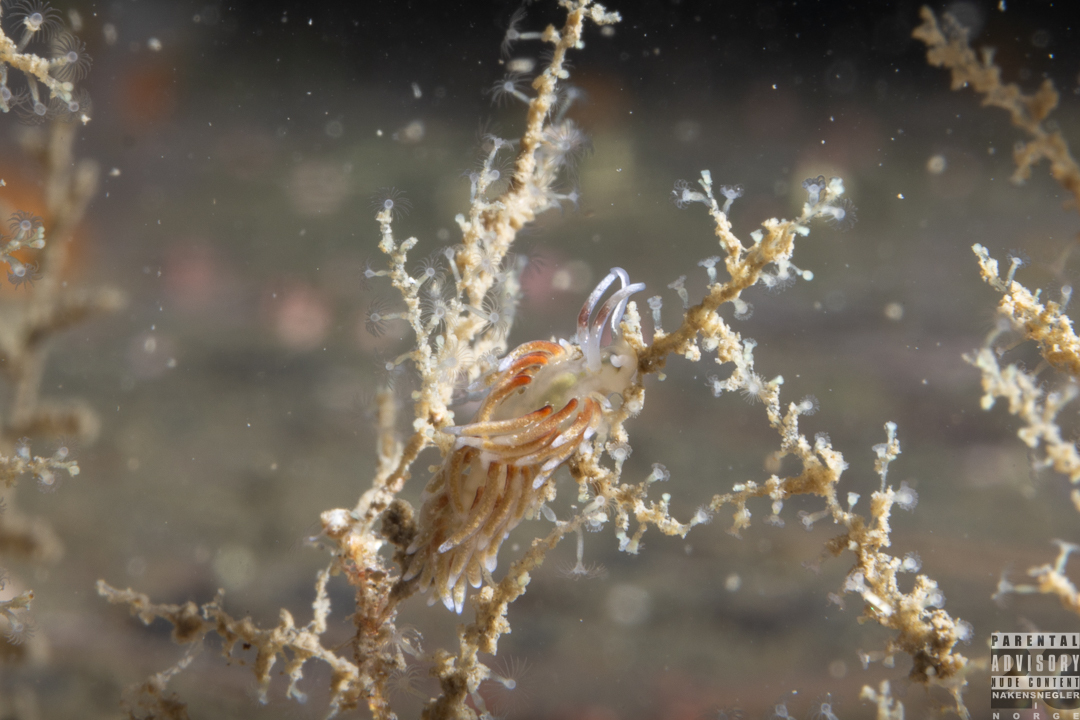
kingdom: Animalia
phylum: Mollusca
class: Gastropoda
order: Nudibranchia
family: Trinchesiidae
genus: Rubramoena
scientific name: Rubramoena rubescens
